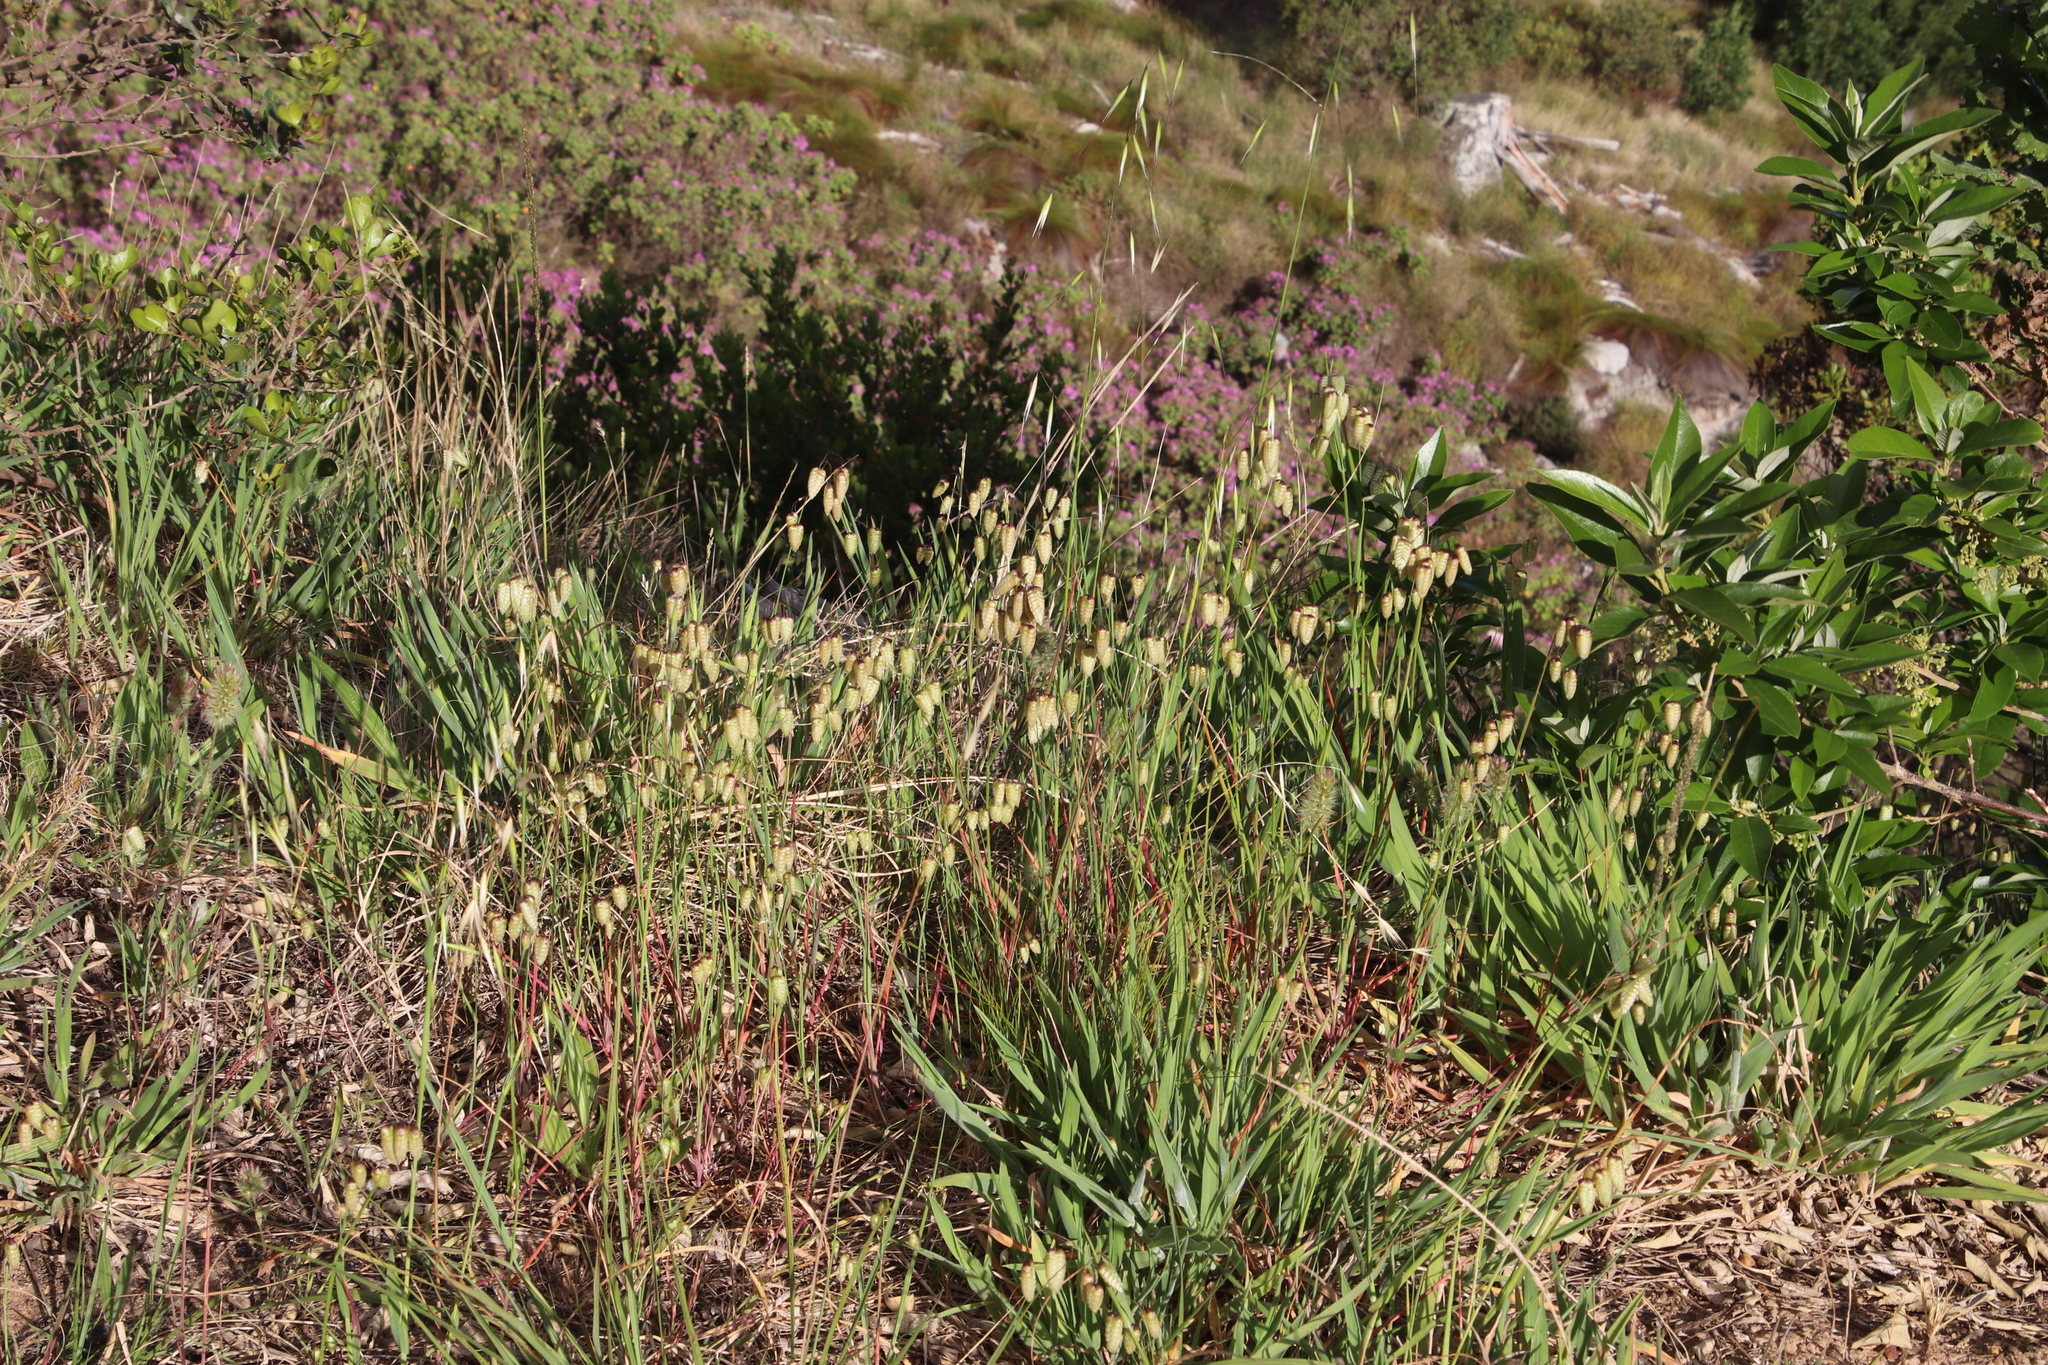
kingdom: Plantae
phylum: Tracheophyta
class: Liliopsida
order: Poales
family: Poaceae
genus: Briza
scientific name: Briza maxima
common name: Big quakinggrass
